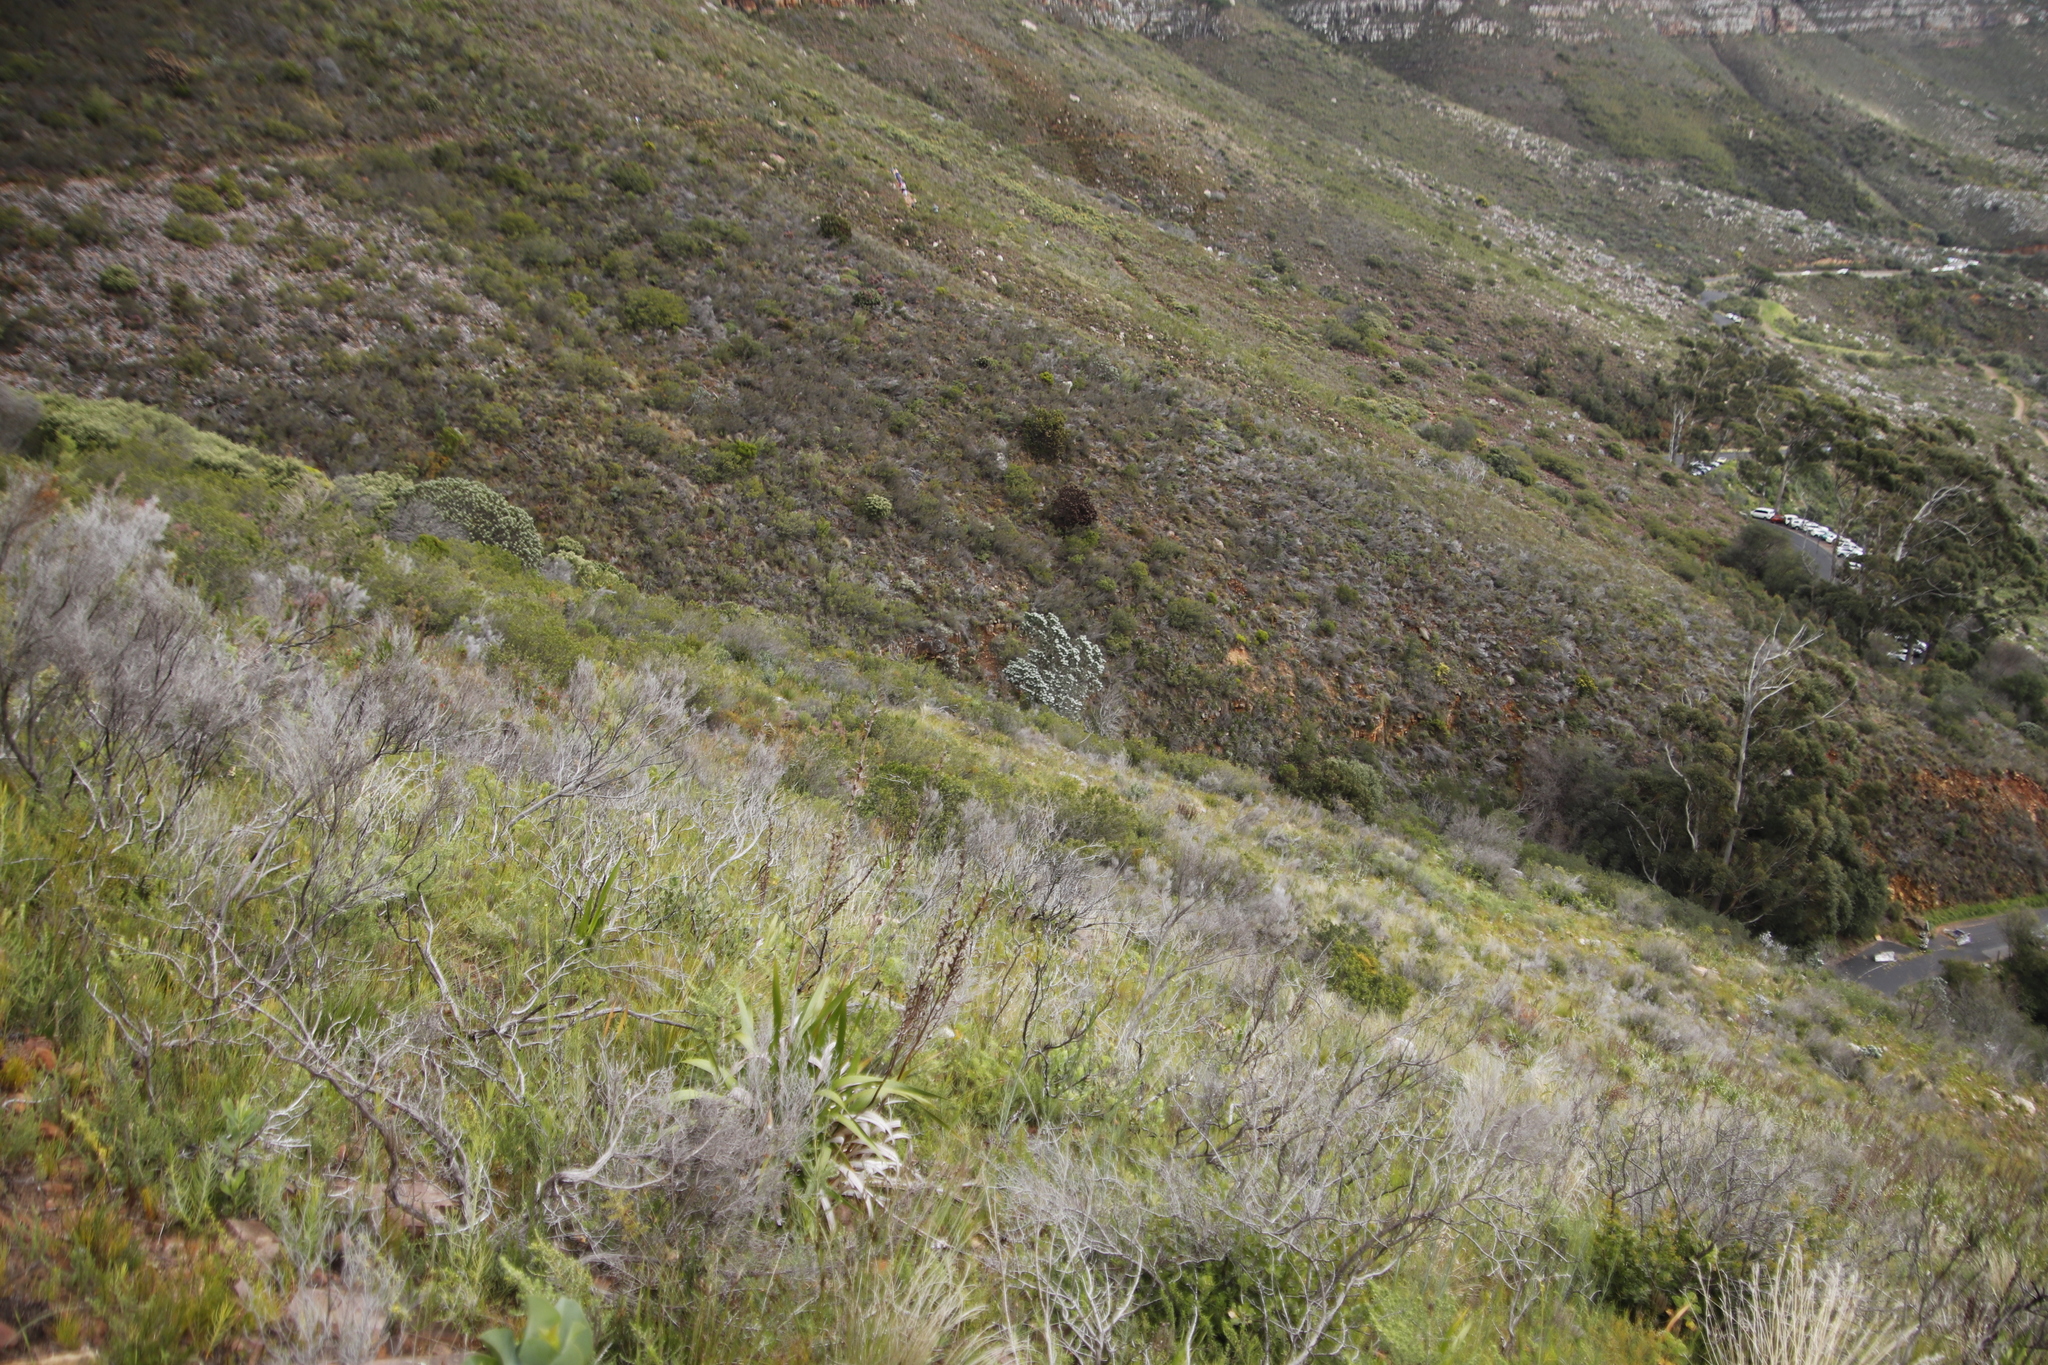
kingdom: Plantae
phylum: Tracheophyta
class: Magnoliopsida
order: Proteales
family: Proteaceae
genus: Leucadendron
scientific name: Leucadendron argenteum
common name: Cape silver tree
